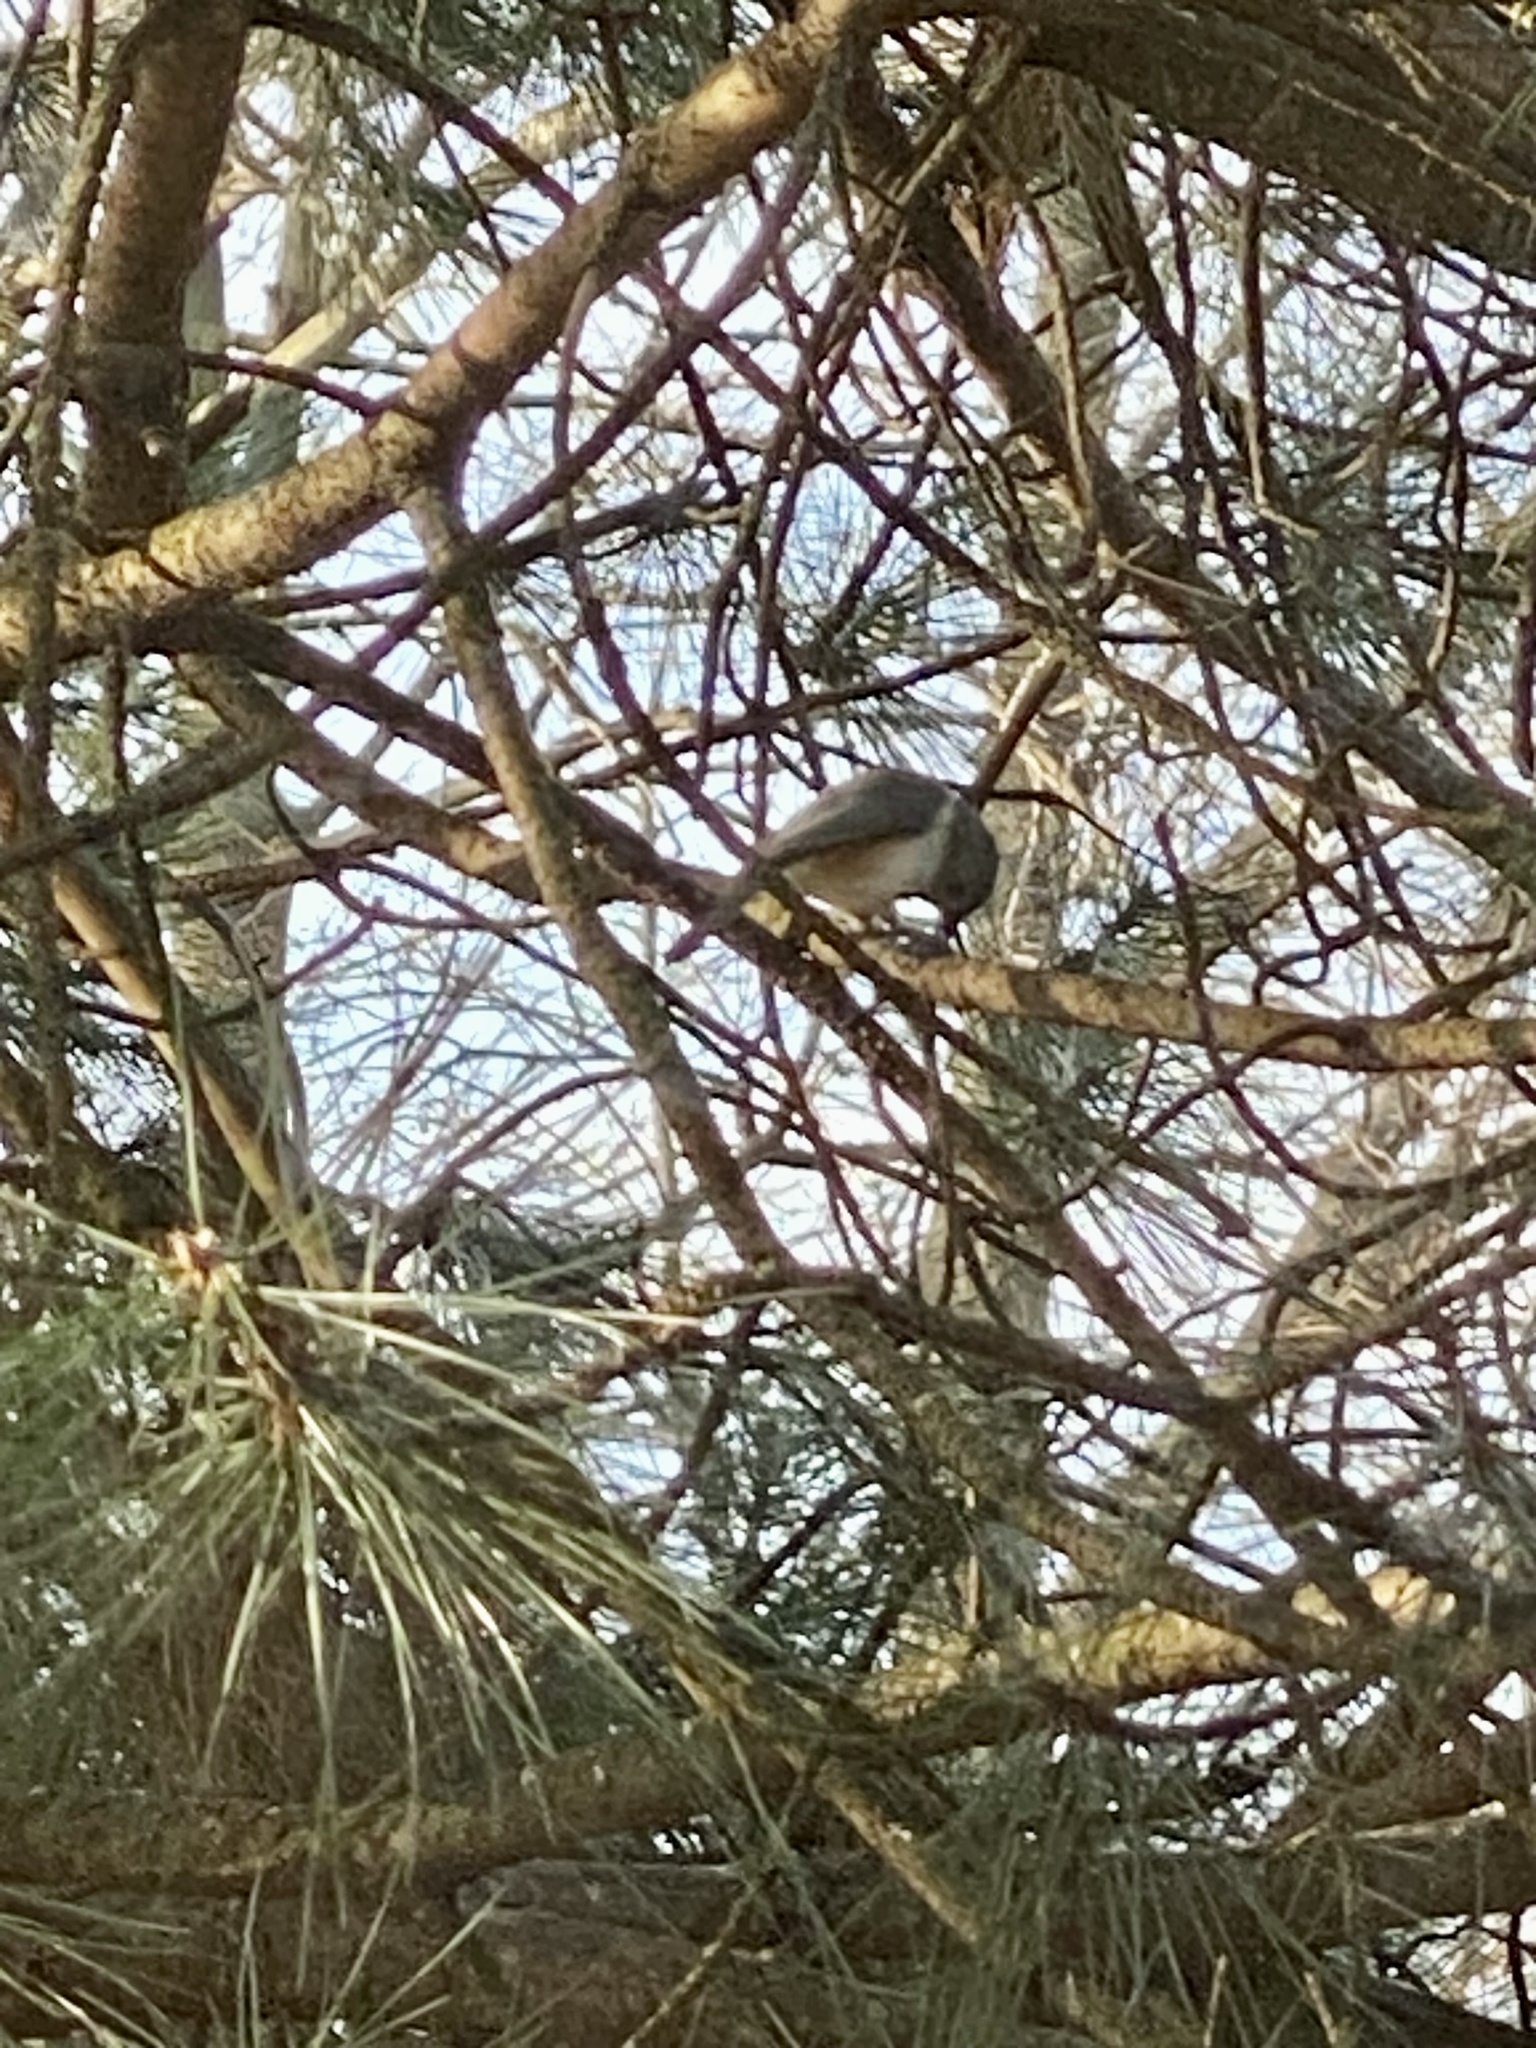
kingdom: Animalia
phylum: Chordata
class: Aves
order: Passeriformes
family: Paridae
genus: Baeolophus
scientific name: Baeolophus bicolor
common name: Tufted titmouse
